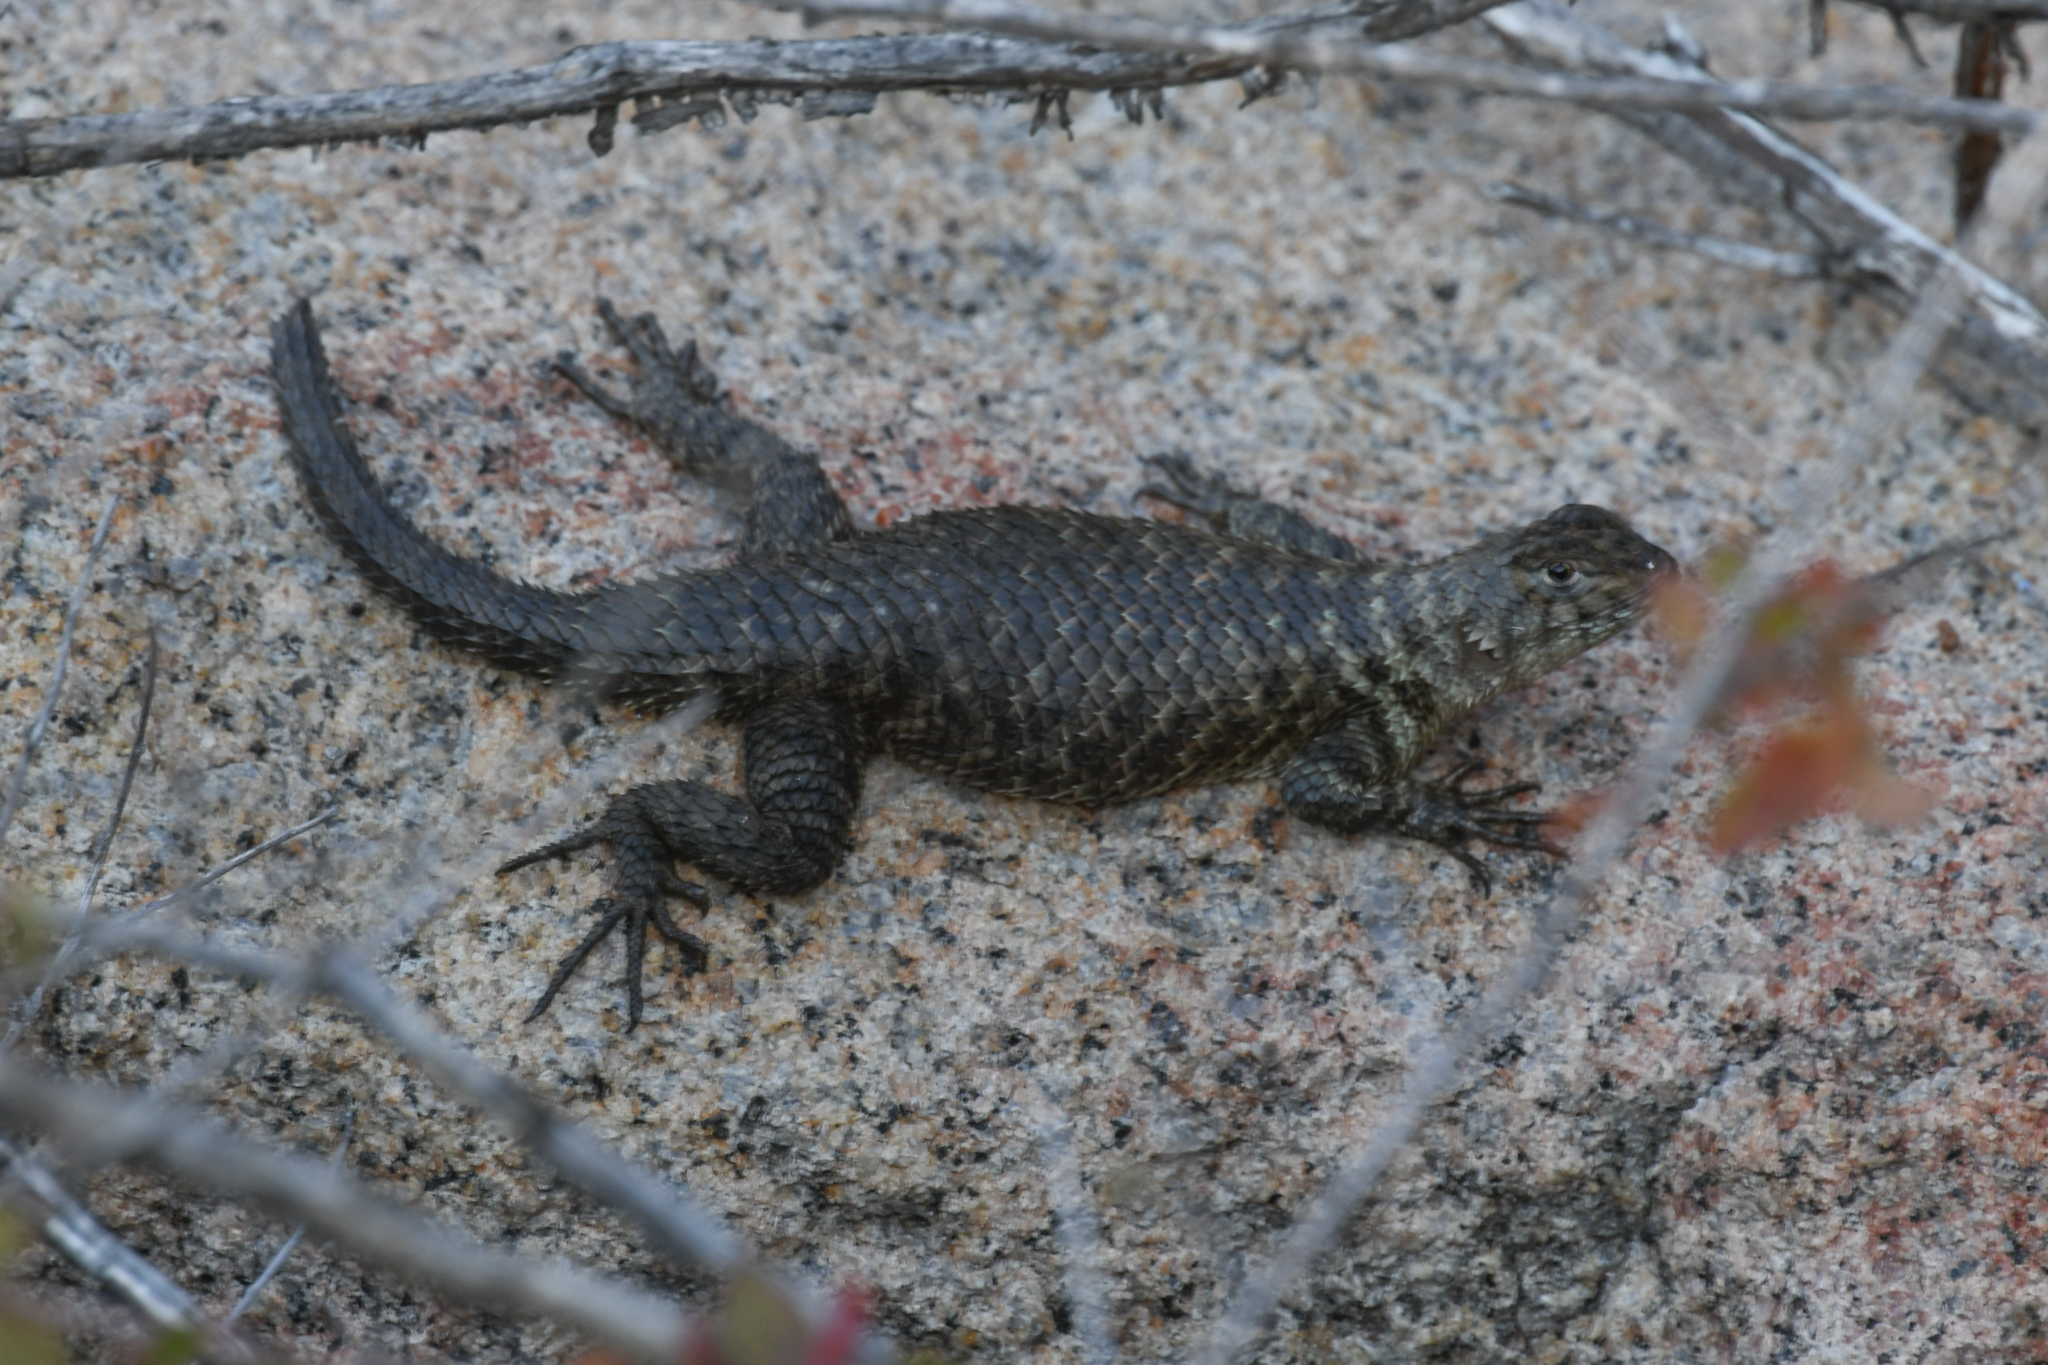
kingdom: Animalia
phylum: Chordata
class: Squamata
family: Phrynosomatidae
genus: Sceloporus
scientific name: Sceloporus orcutti
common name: Granite spiny lizard
